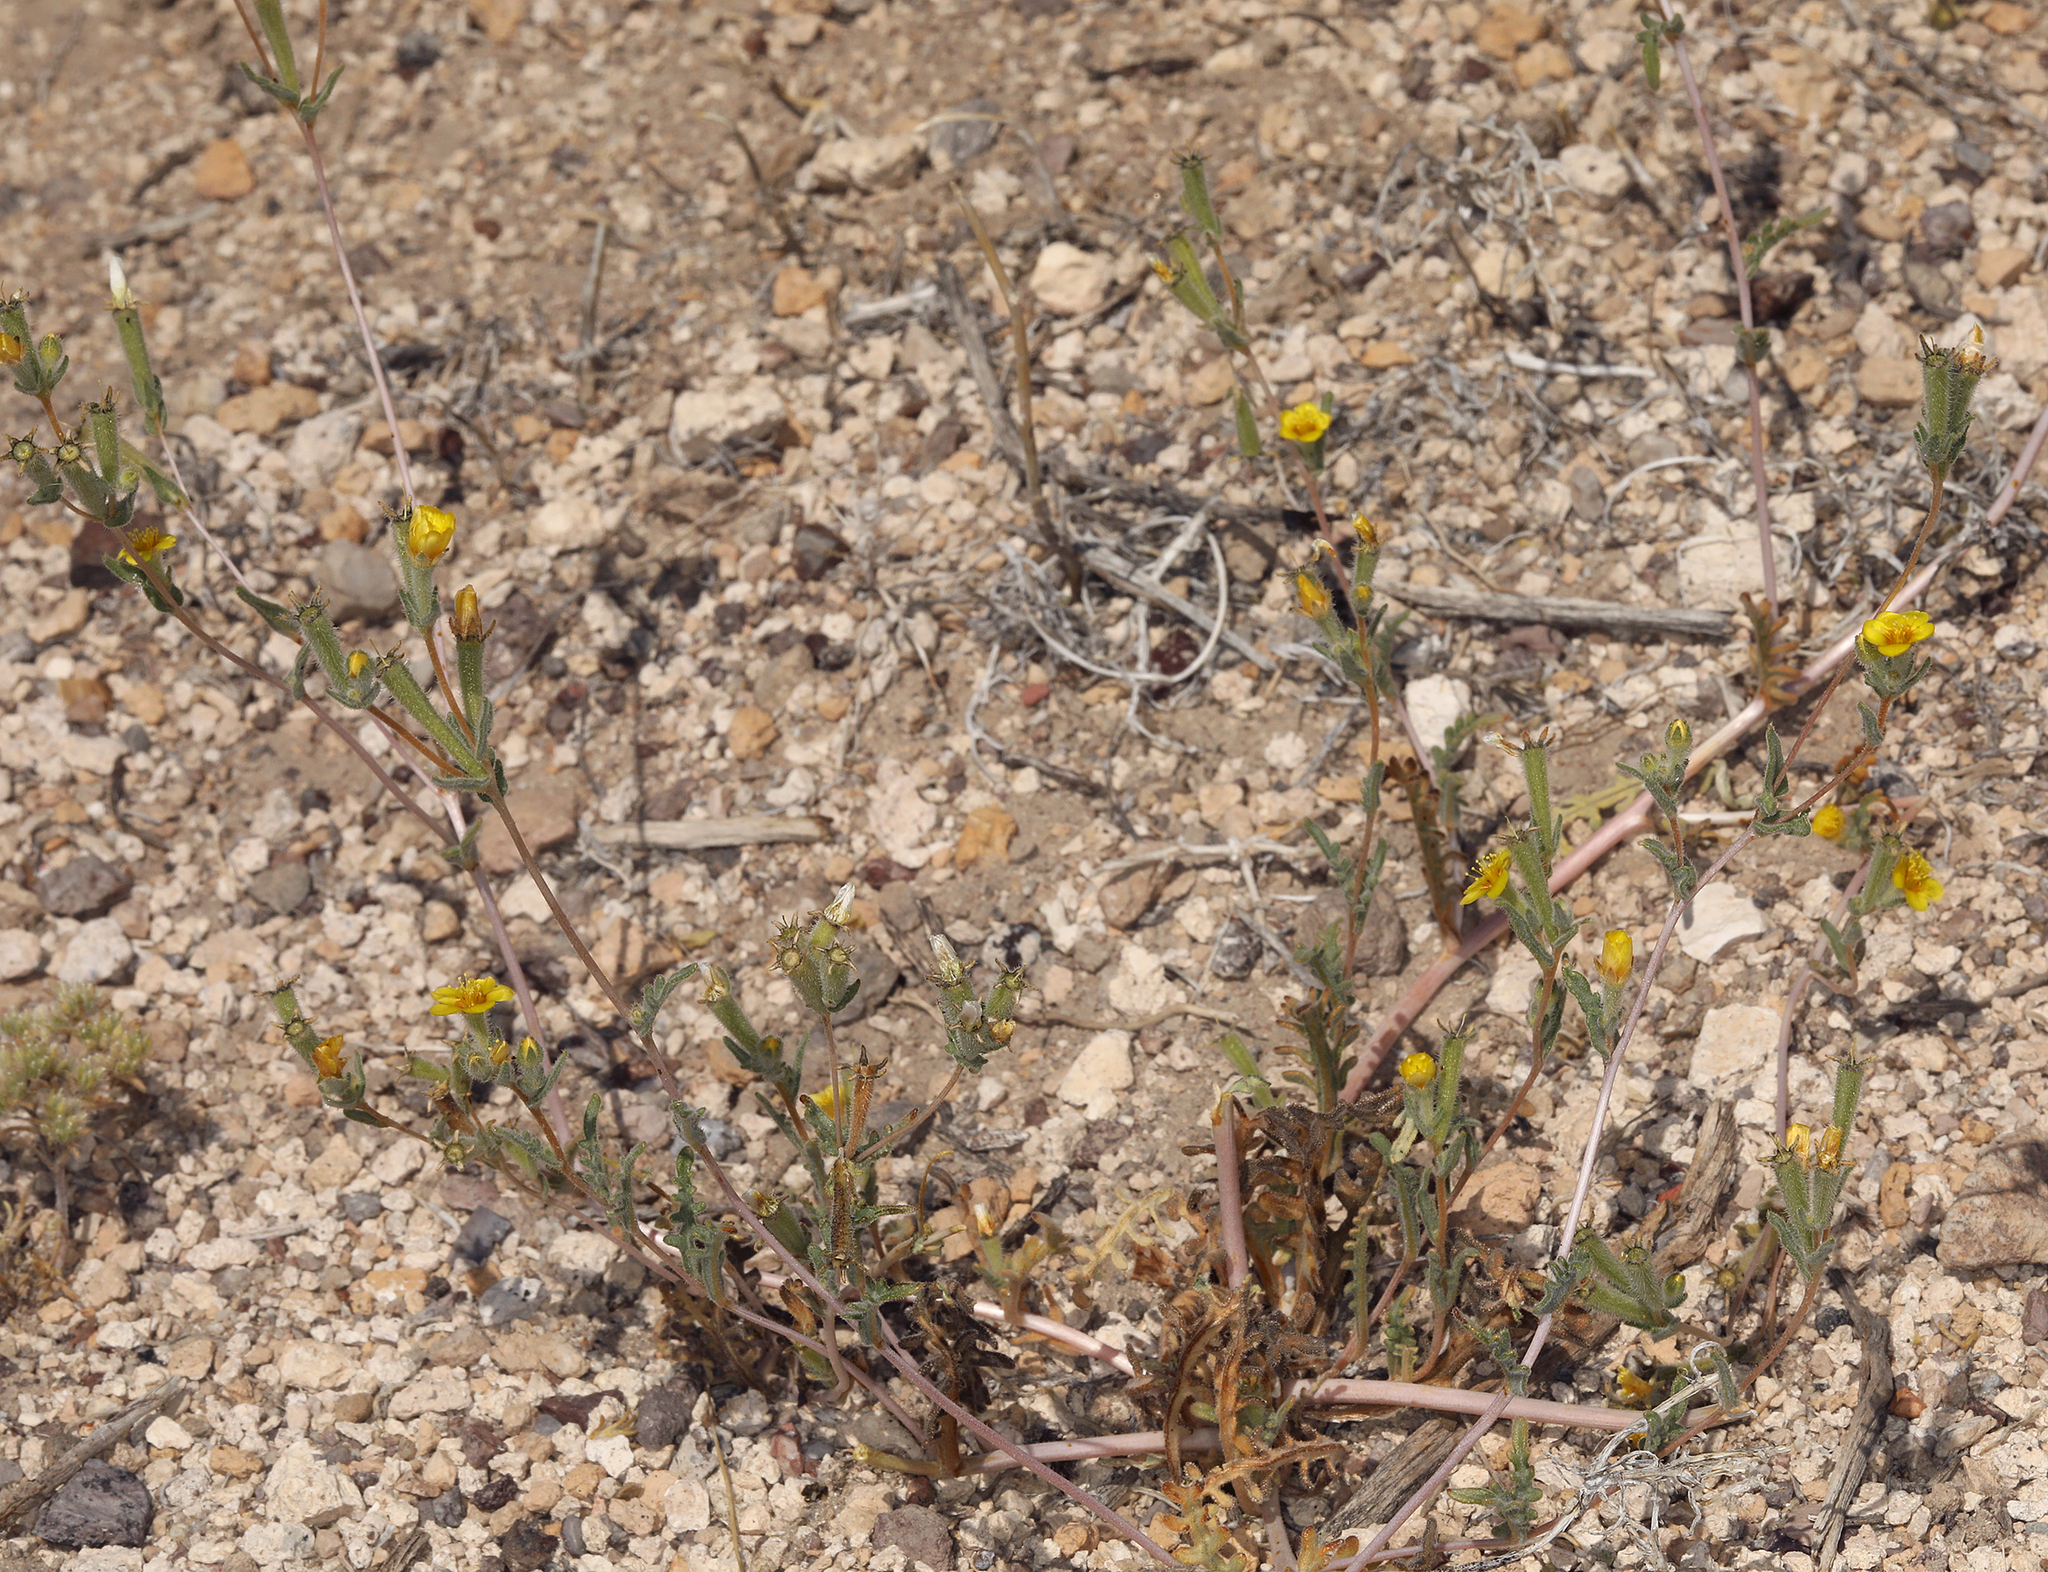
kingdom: Plantae
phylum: Tracheophyta
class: Magnoliopsida
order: Cornales
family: Loasaceae
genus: Mentzelia
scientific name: Mentzelia albicaulis
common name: White-stem blazingstar
